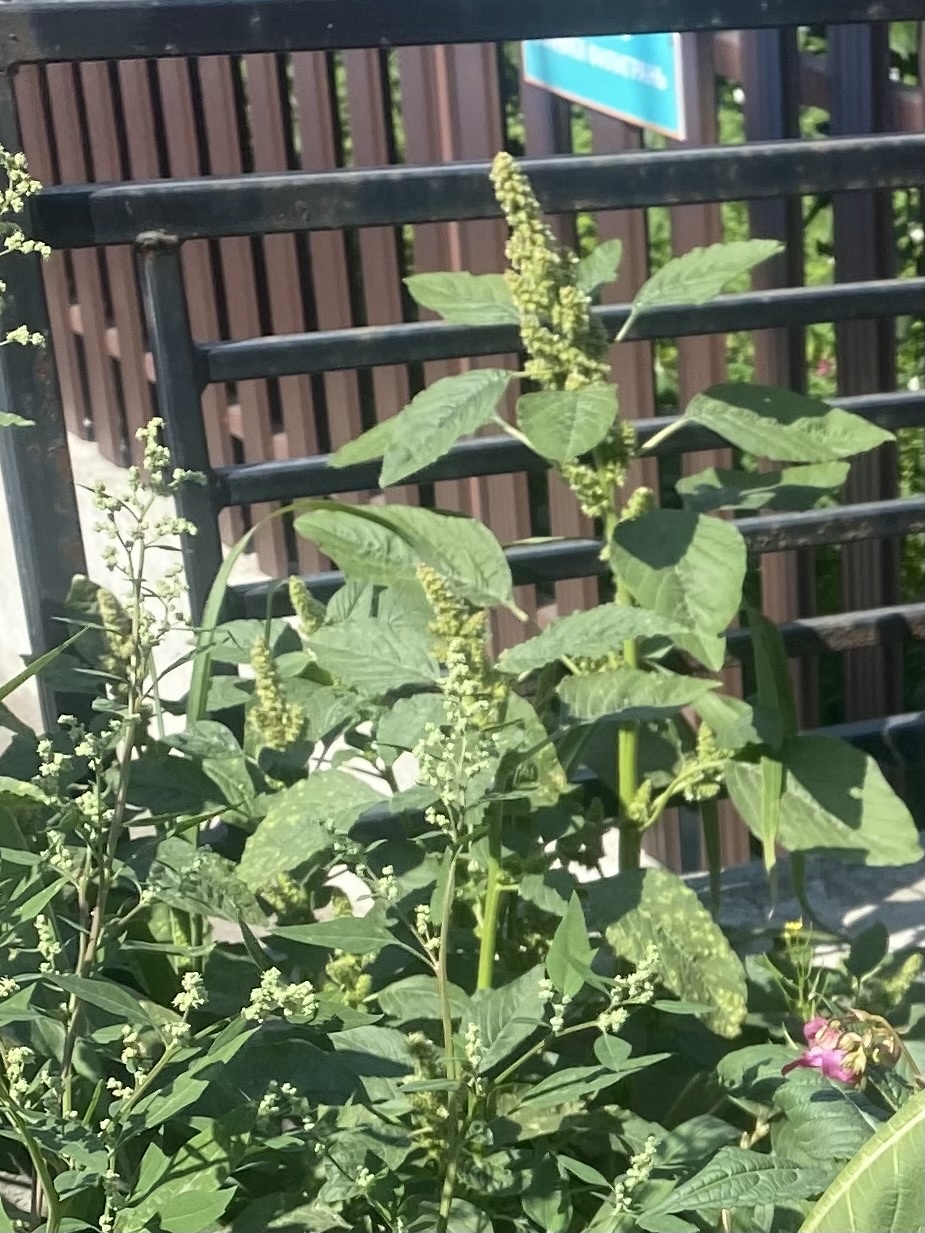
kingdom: Plantae
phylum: Tracheophyta
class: Magnoliopsida
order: Caryophyllales
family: Amaranthaceae
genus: Amaranthus
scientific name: Amaranthus retroflexus
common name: Redroot amaranth
